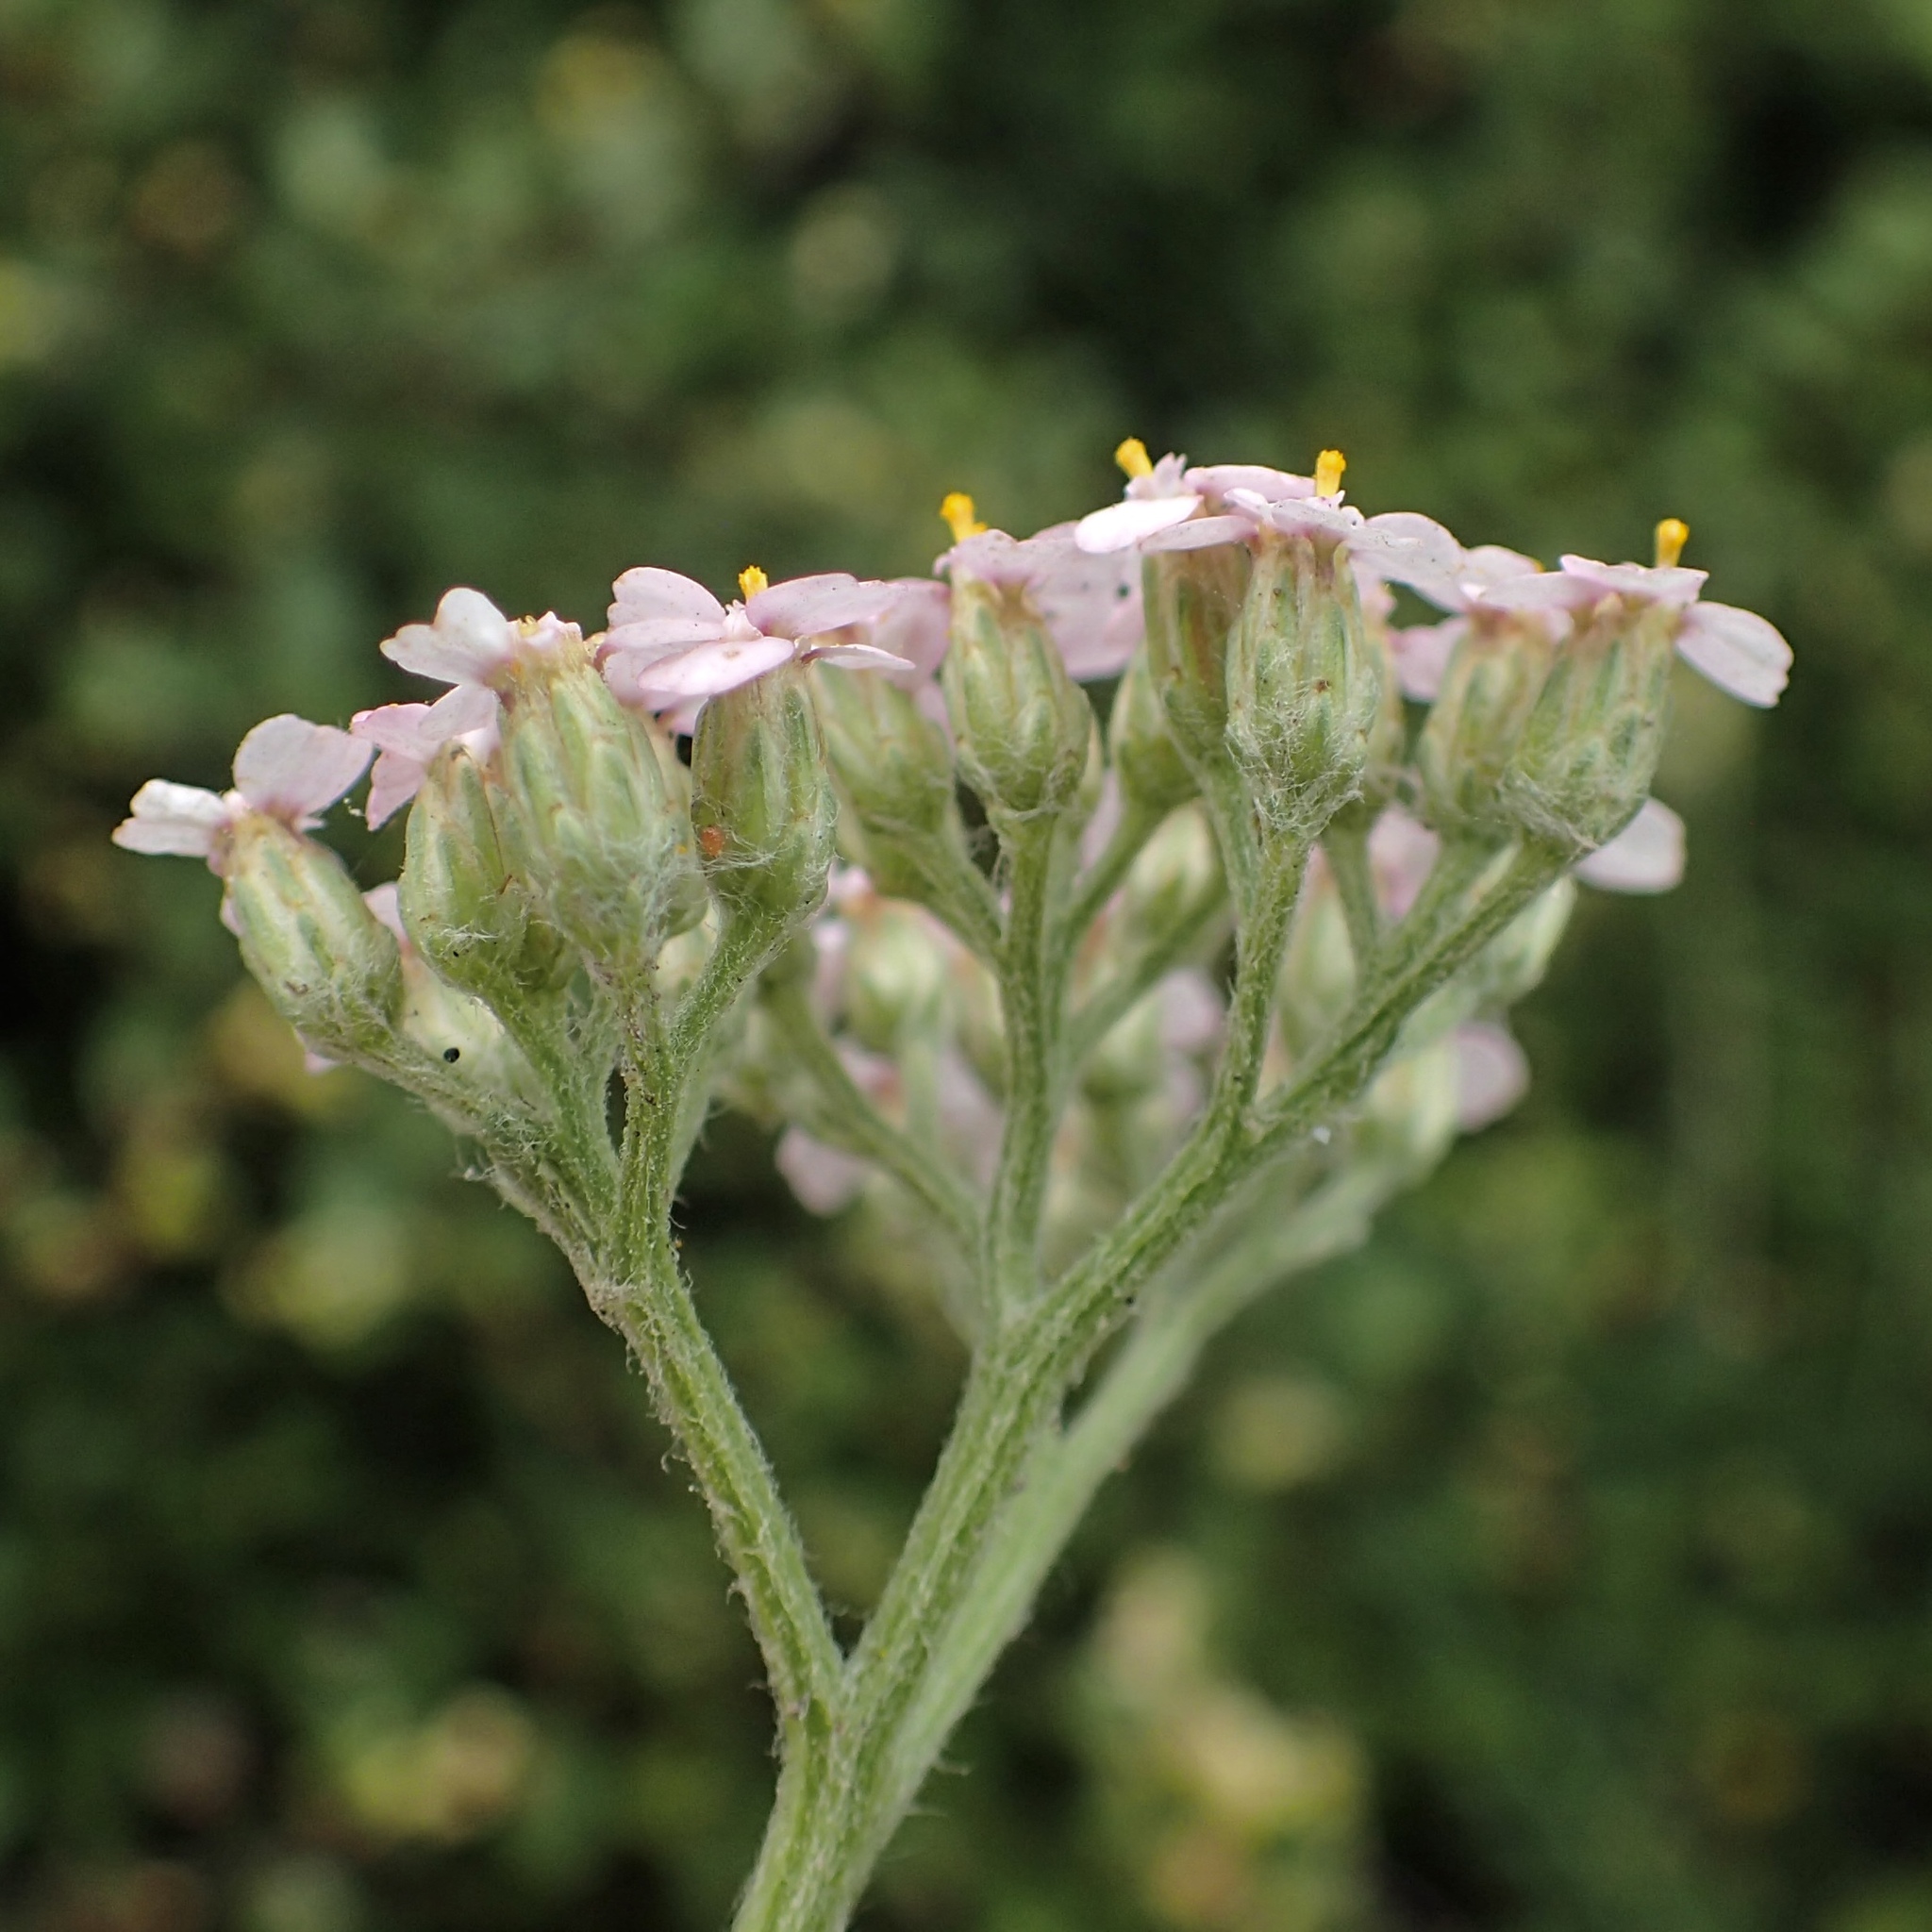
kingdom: Plantae
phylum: Tracheophyta
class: Magnoliopsida
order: Asterales
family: Asteraceae
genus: Achillea
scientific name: Achillea millefolium
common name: Yarrow
